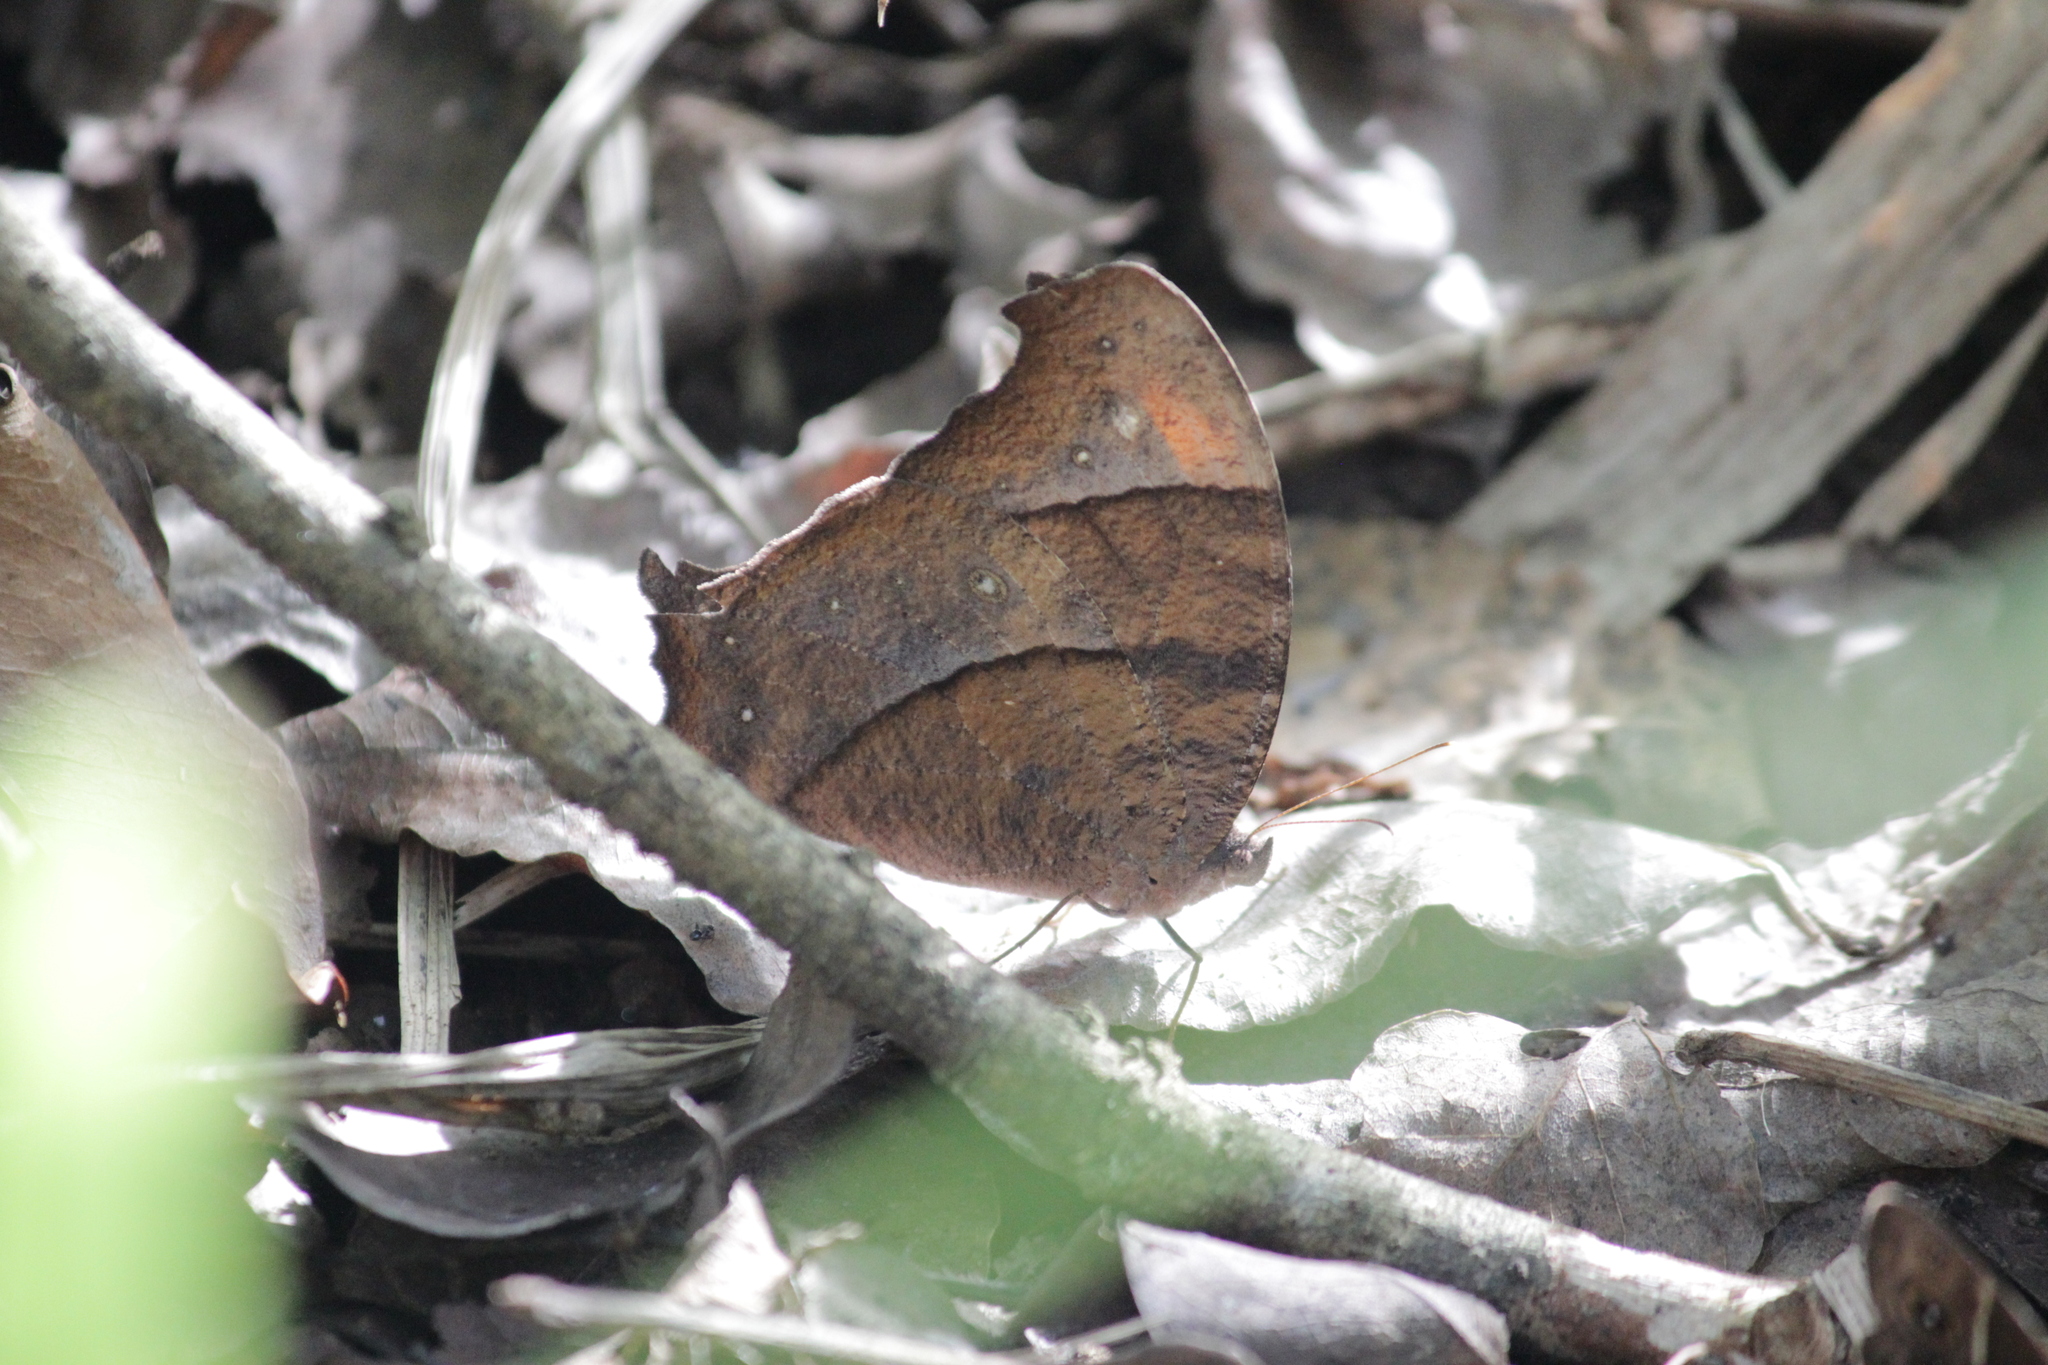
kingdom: Animalia
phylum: Arthropoda
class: Insecta
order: Lepidoptera
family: Nymphalidae
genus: Melanitis
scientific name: Melanitis leda
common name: Twilight brown
